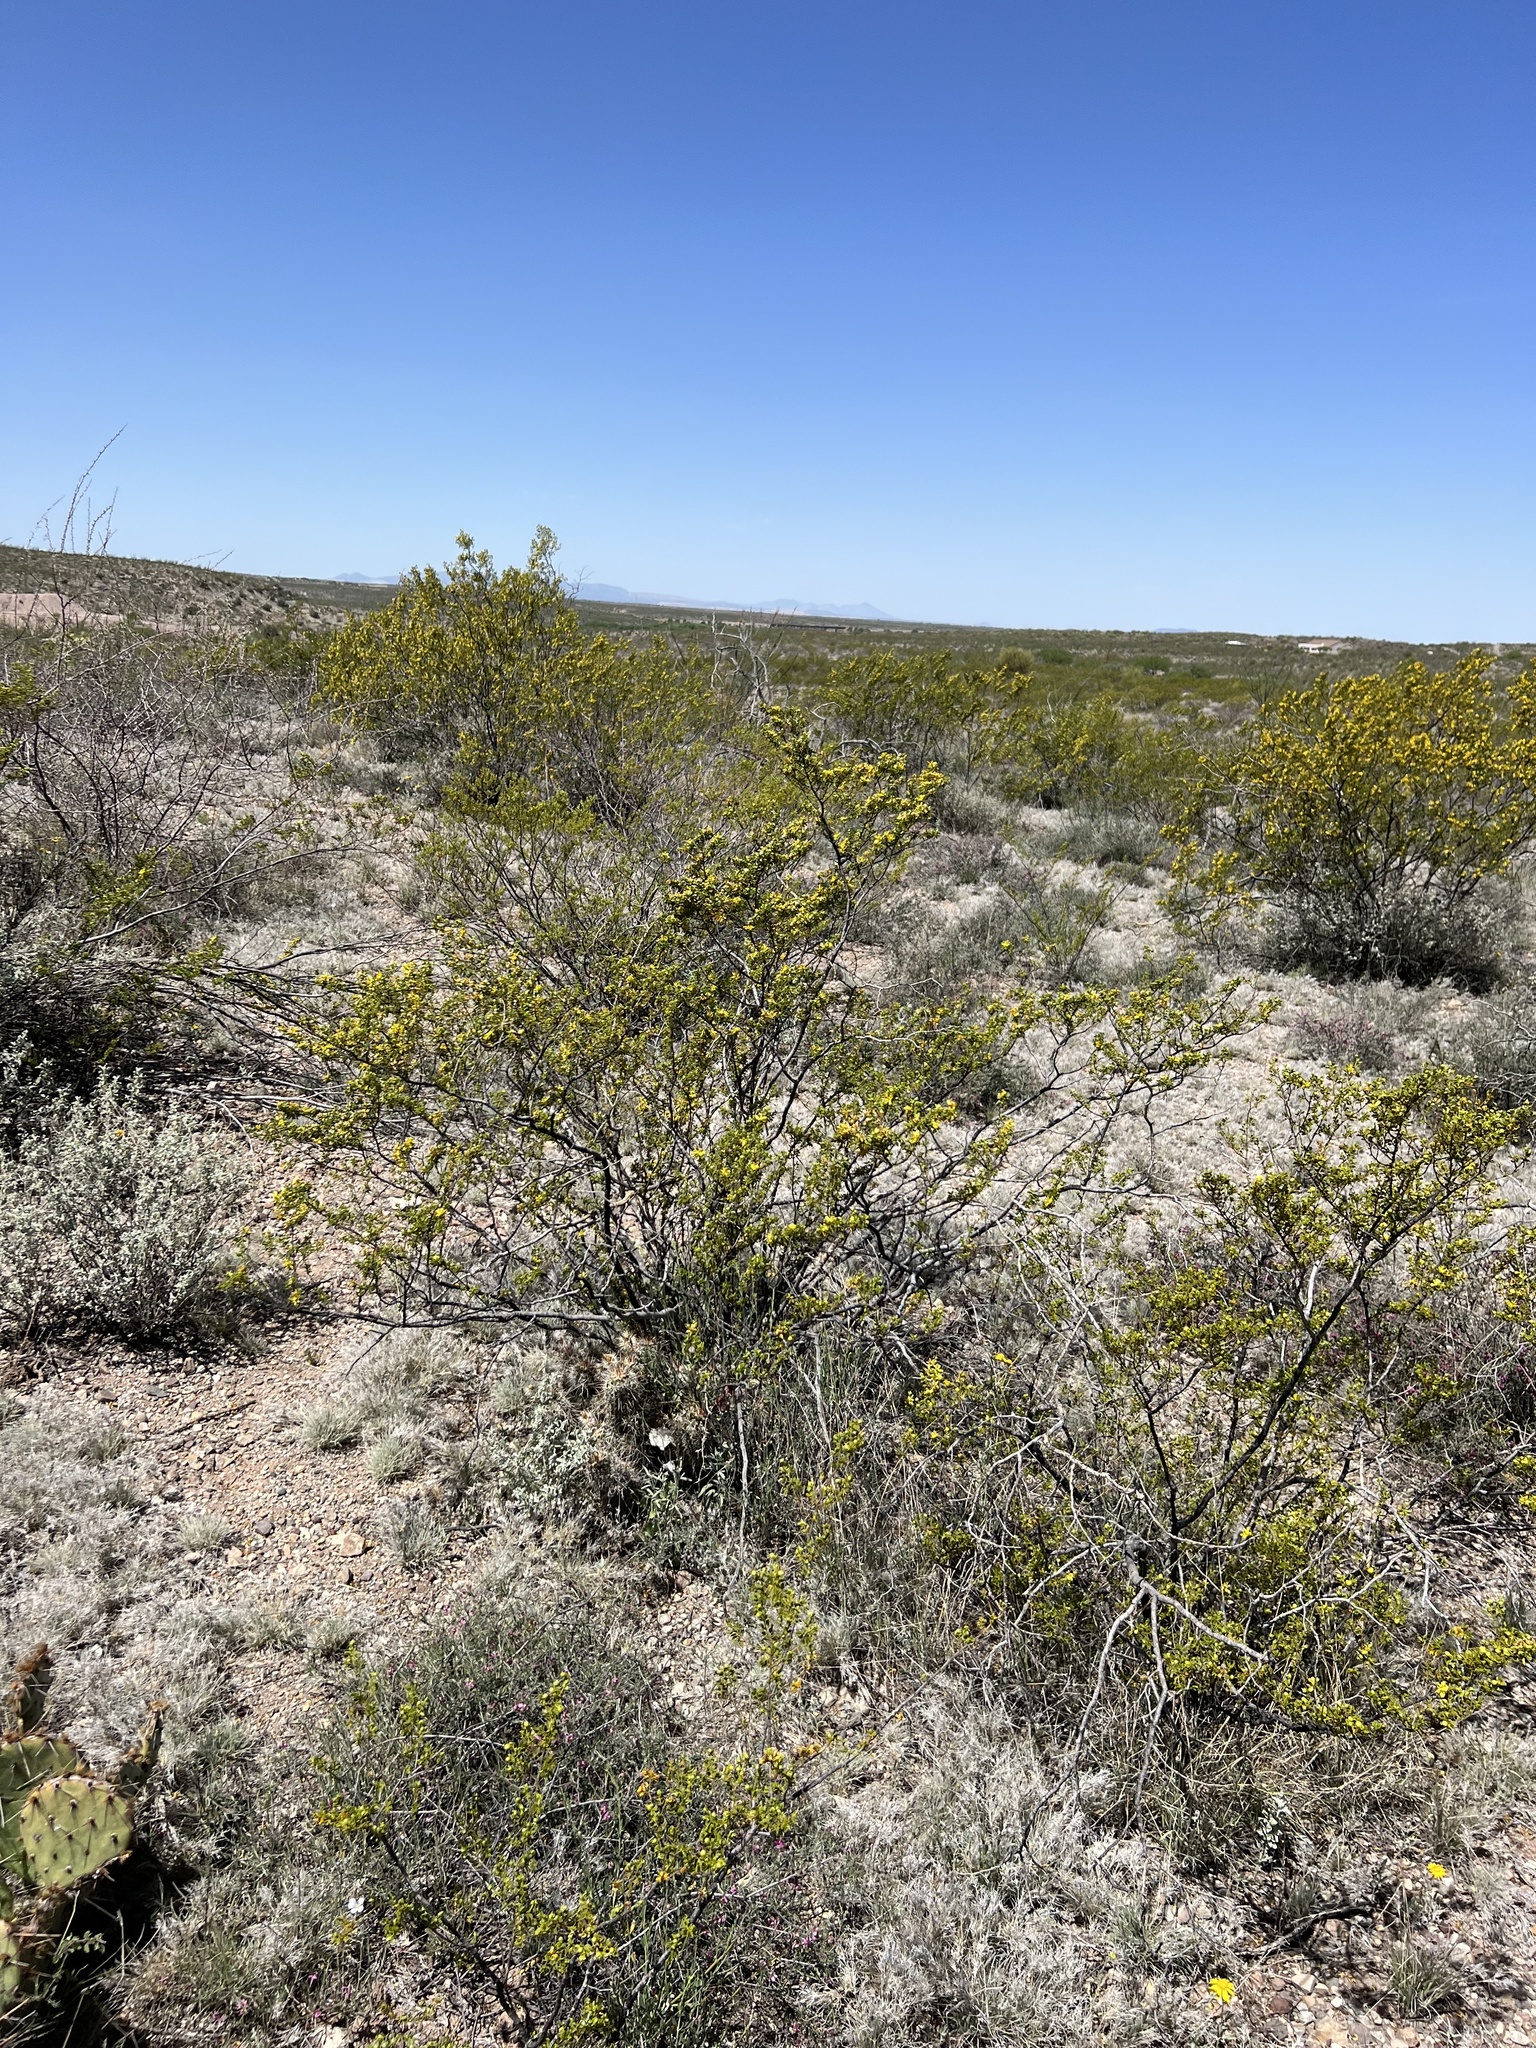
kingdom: Plantae
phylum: Tracheophyta
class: Magnoliopsida
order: Zygophyllales
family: Zygophyllaceae
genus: Larrea
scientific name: Larrea tridentata
